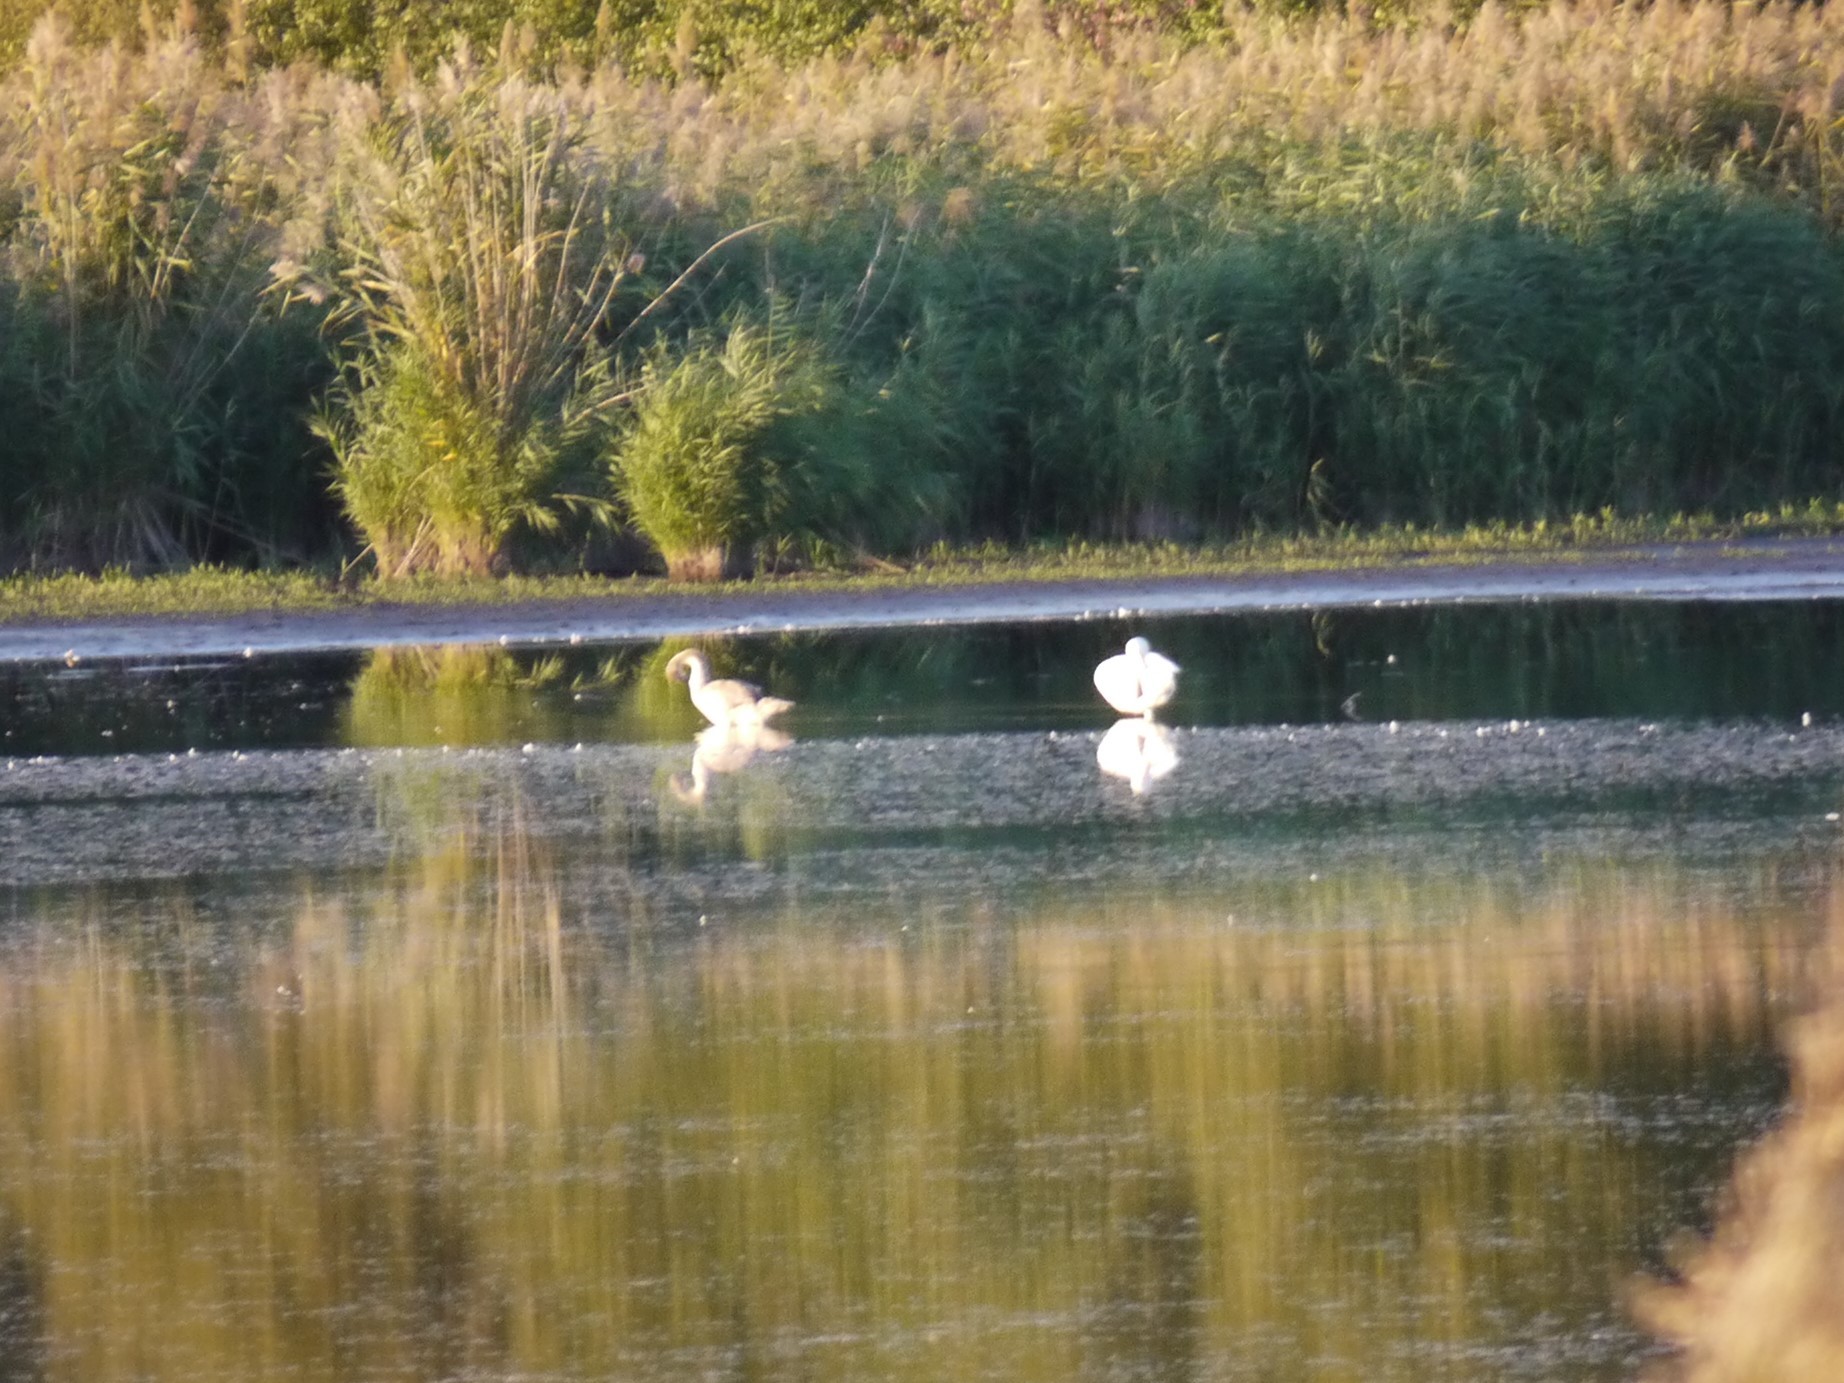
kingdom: Animalia
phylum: Chordata
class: Aves
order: Anseriformes
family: Anatidae
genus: Cygnus
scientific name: Cygnus olor
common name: Mute swan
